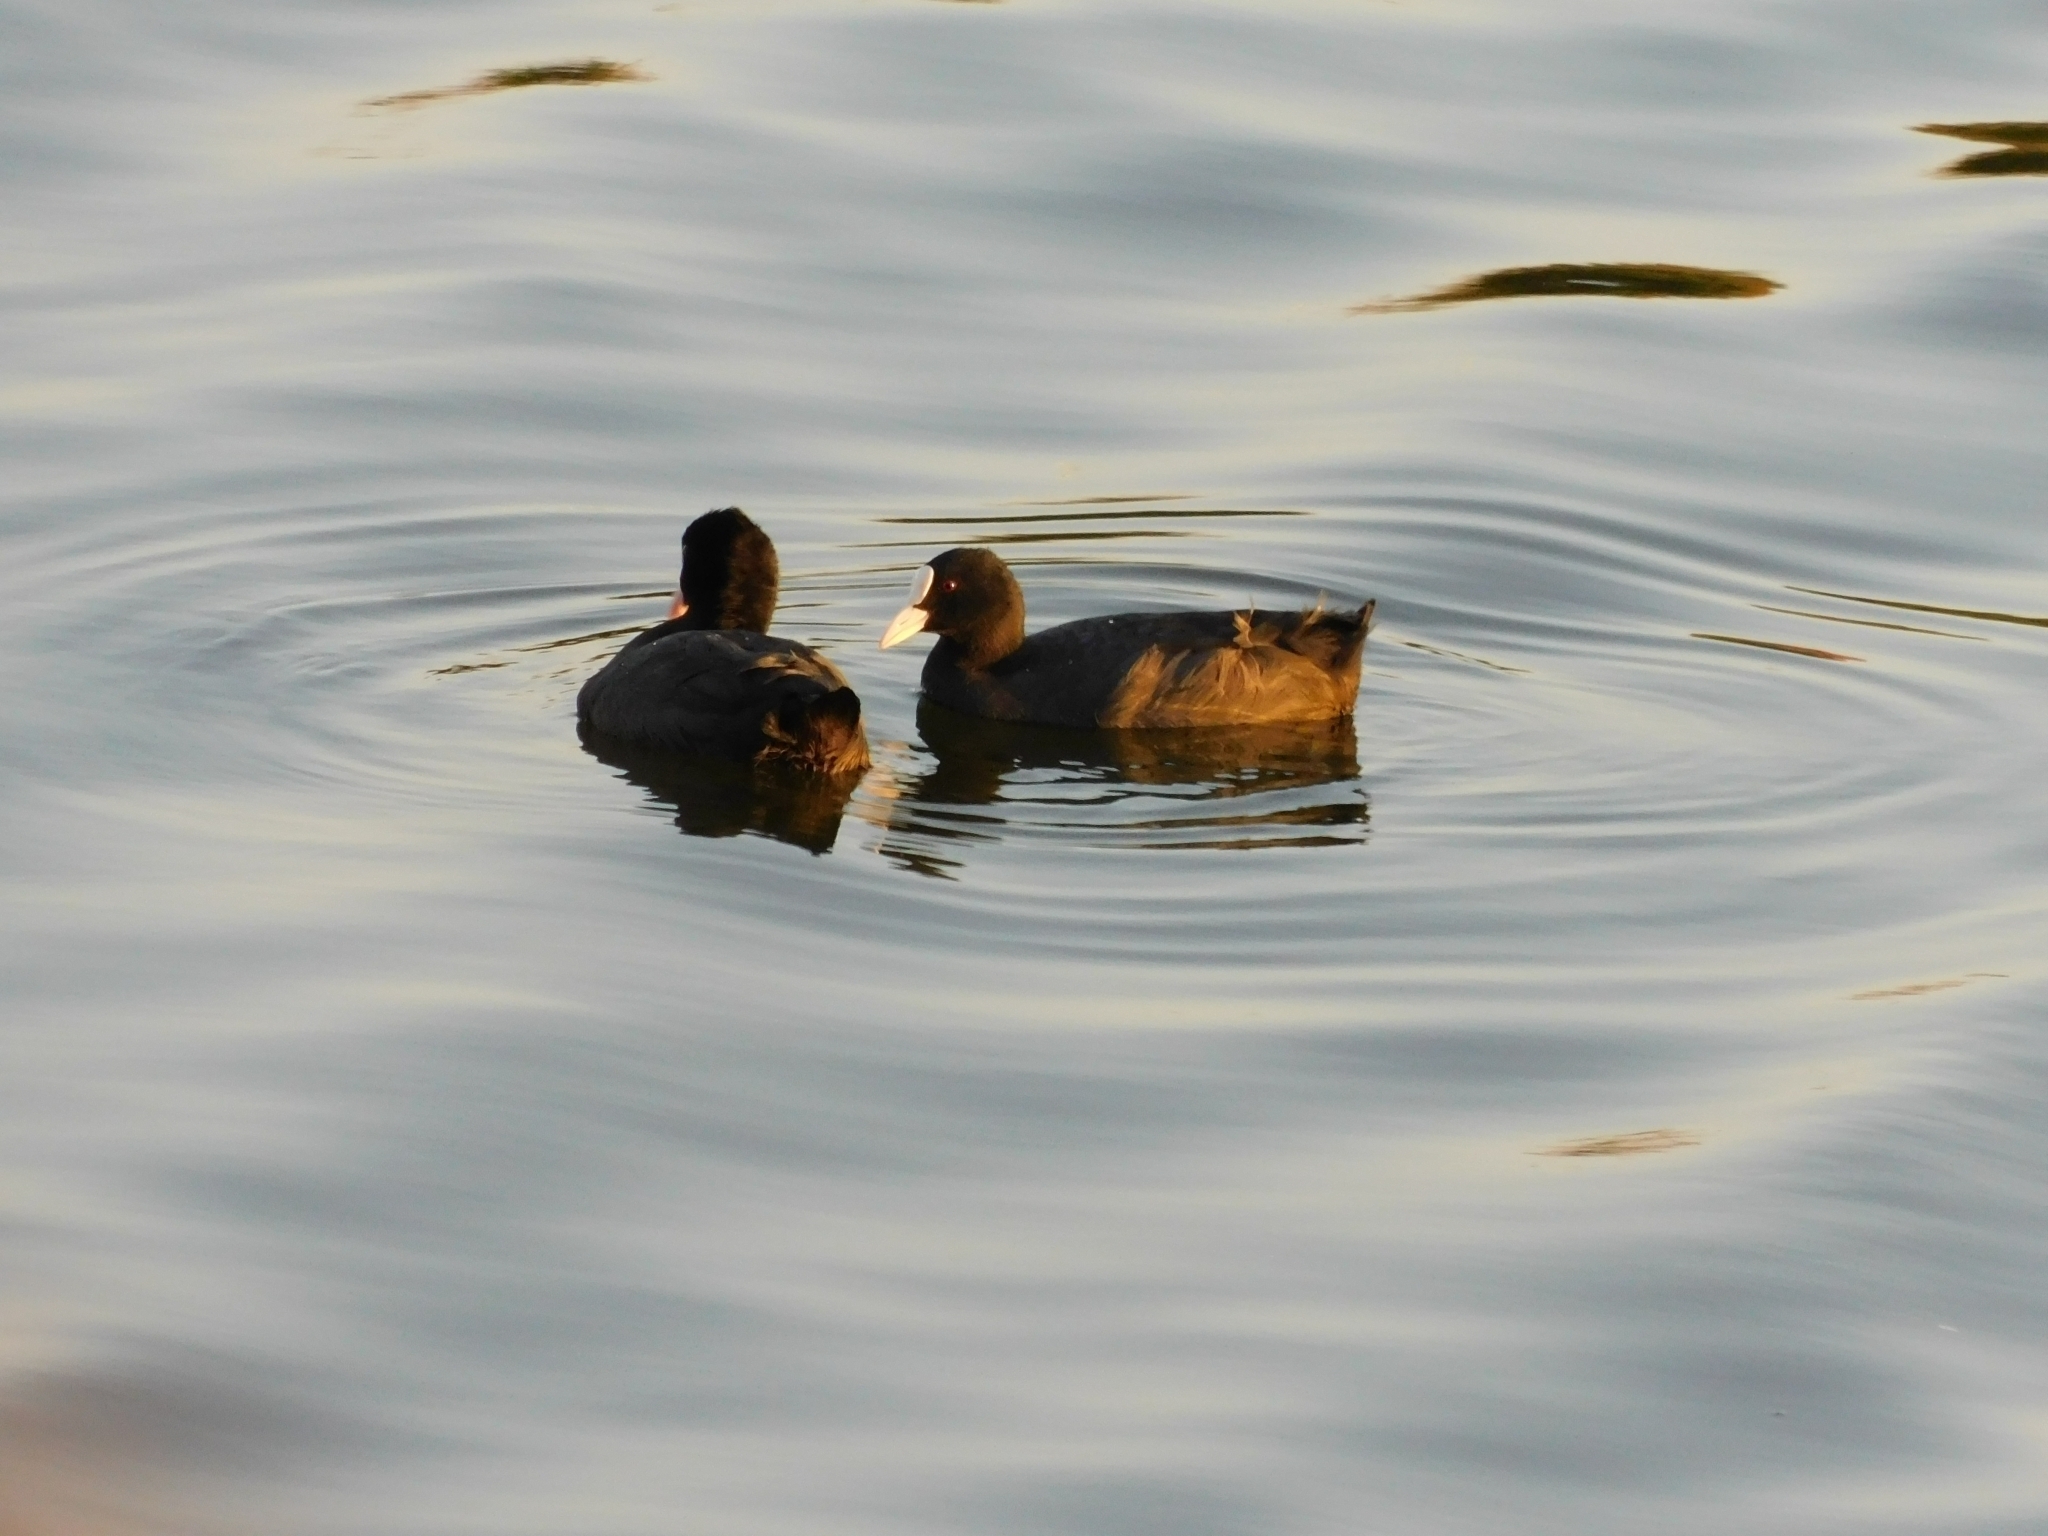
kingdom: Animalia
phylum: Chordata
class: Aves
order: Gruiformes
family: Rallidae
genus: Fulica
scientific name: Fulica atra
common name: Eurasian coot
